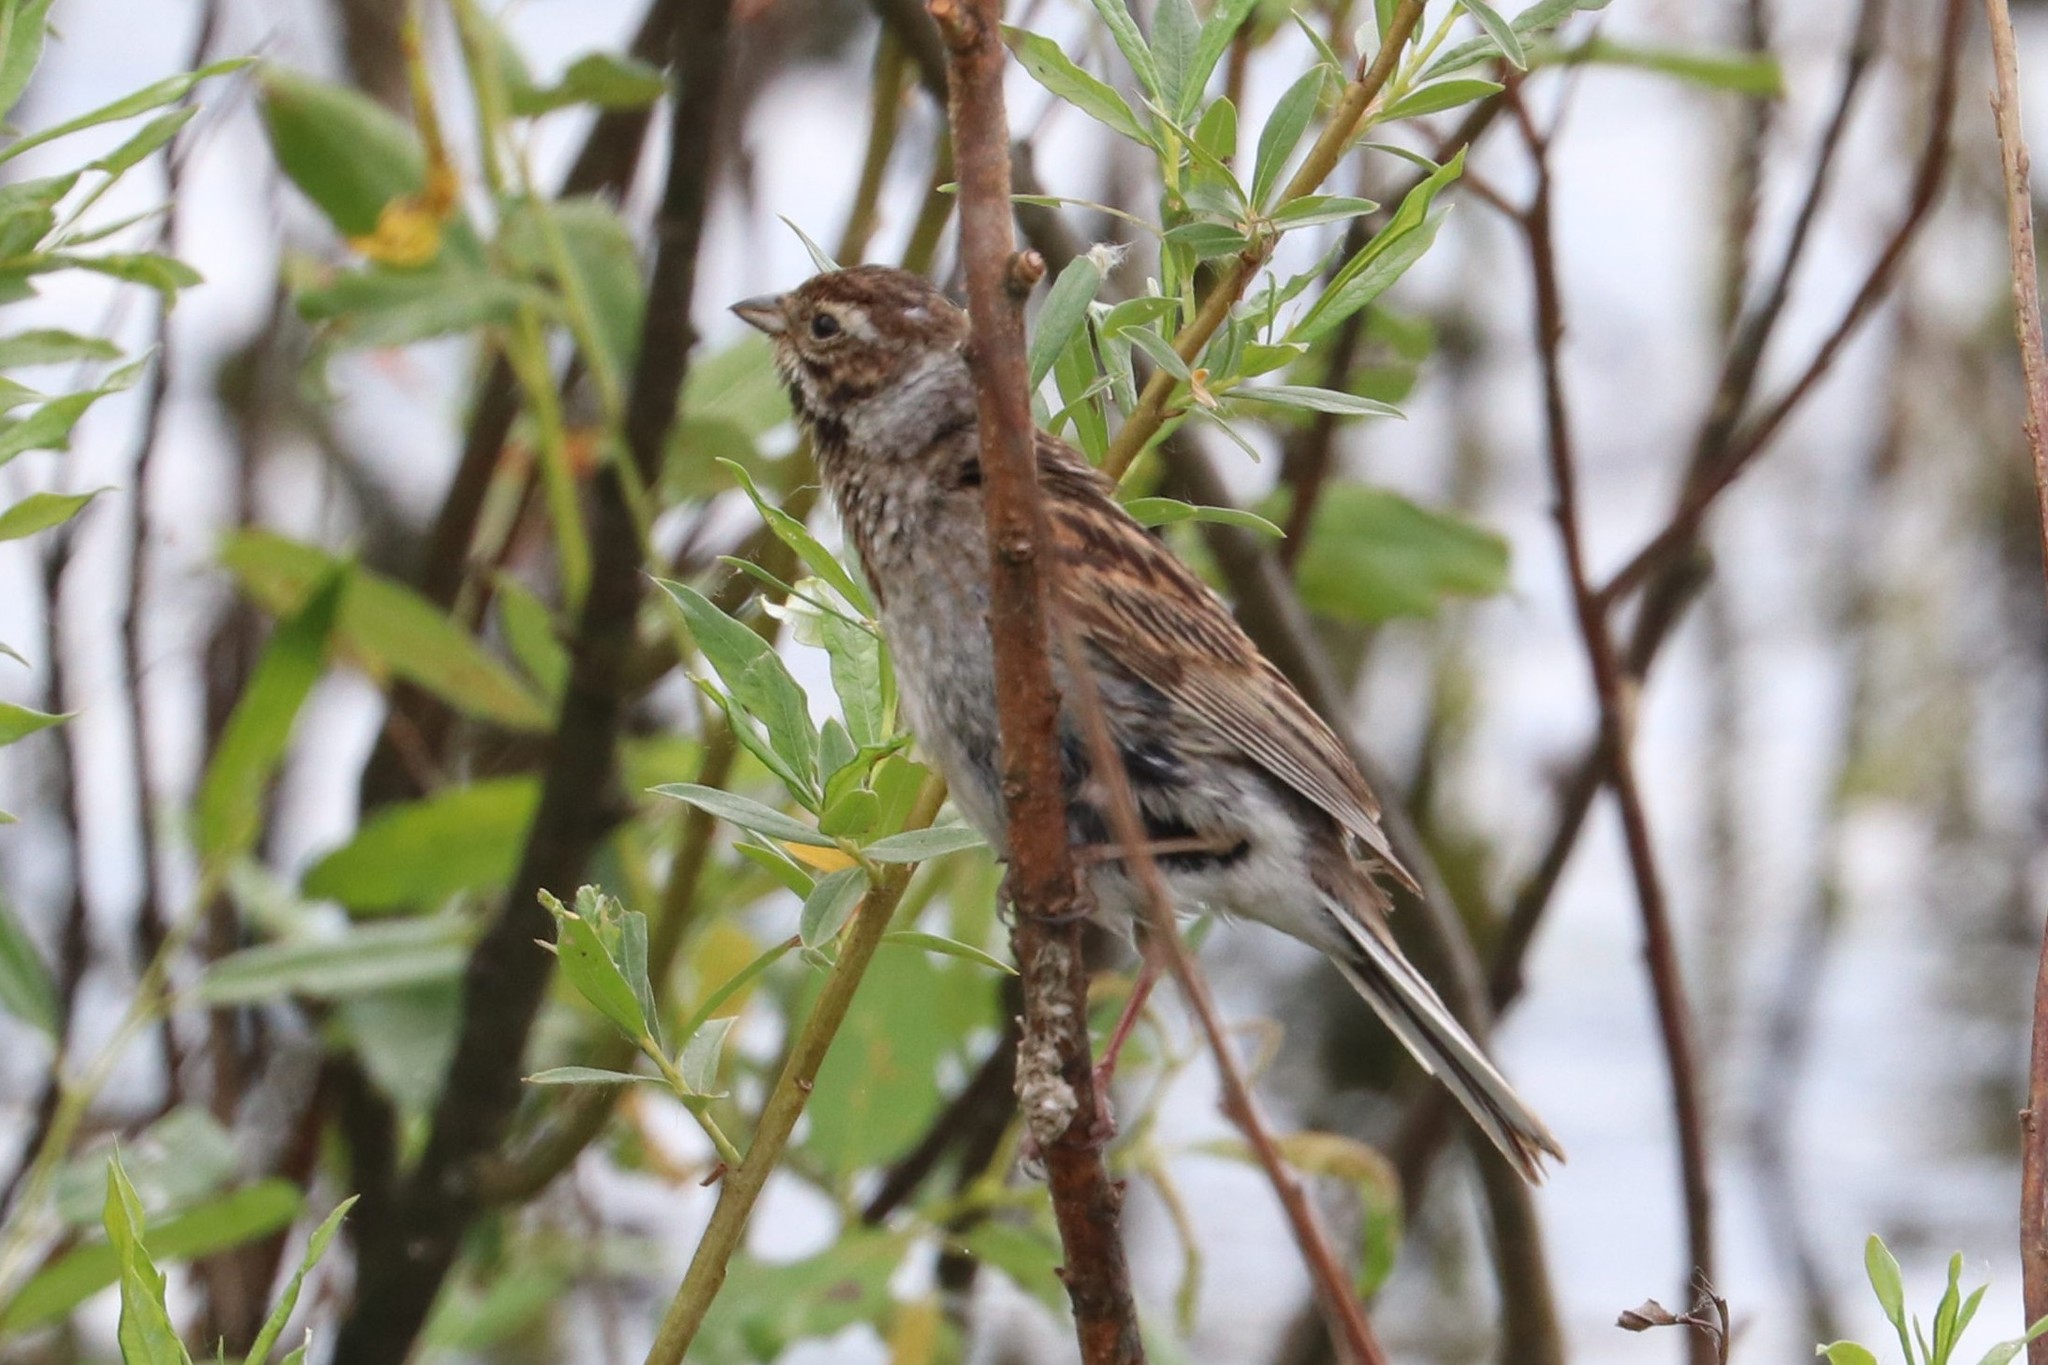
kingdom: Animalia
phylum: Chordata
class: Aves
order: Passeriformes
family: Emberizidae
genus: Emberiza
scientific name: Emberiza schoeniclus
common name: Reed bunting
